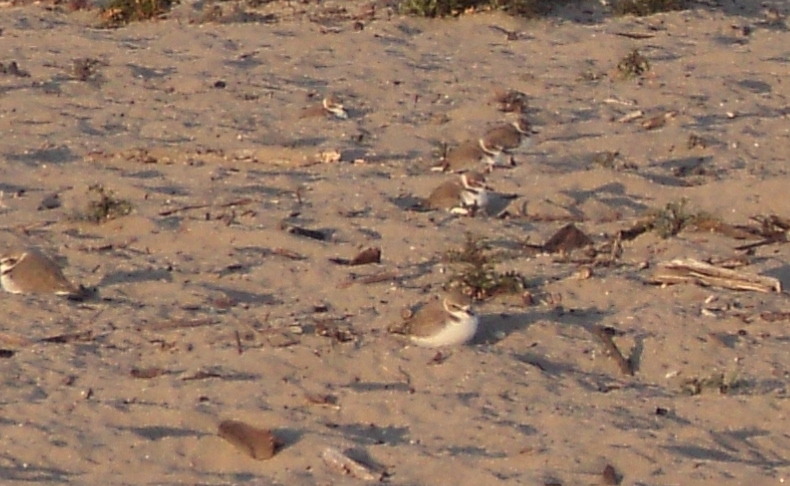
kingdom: Animalia
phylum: Chordata
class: Aves
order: Charadriiformes
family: Charadriidae
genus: Anarhynchus
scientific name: Anarhynchus
